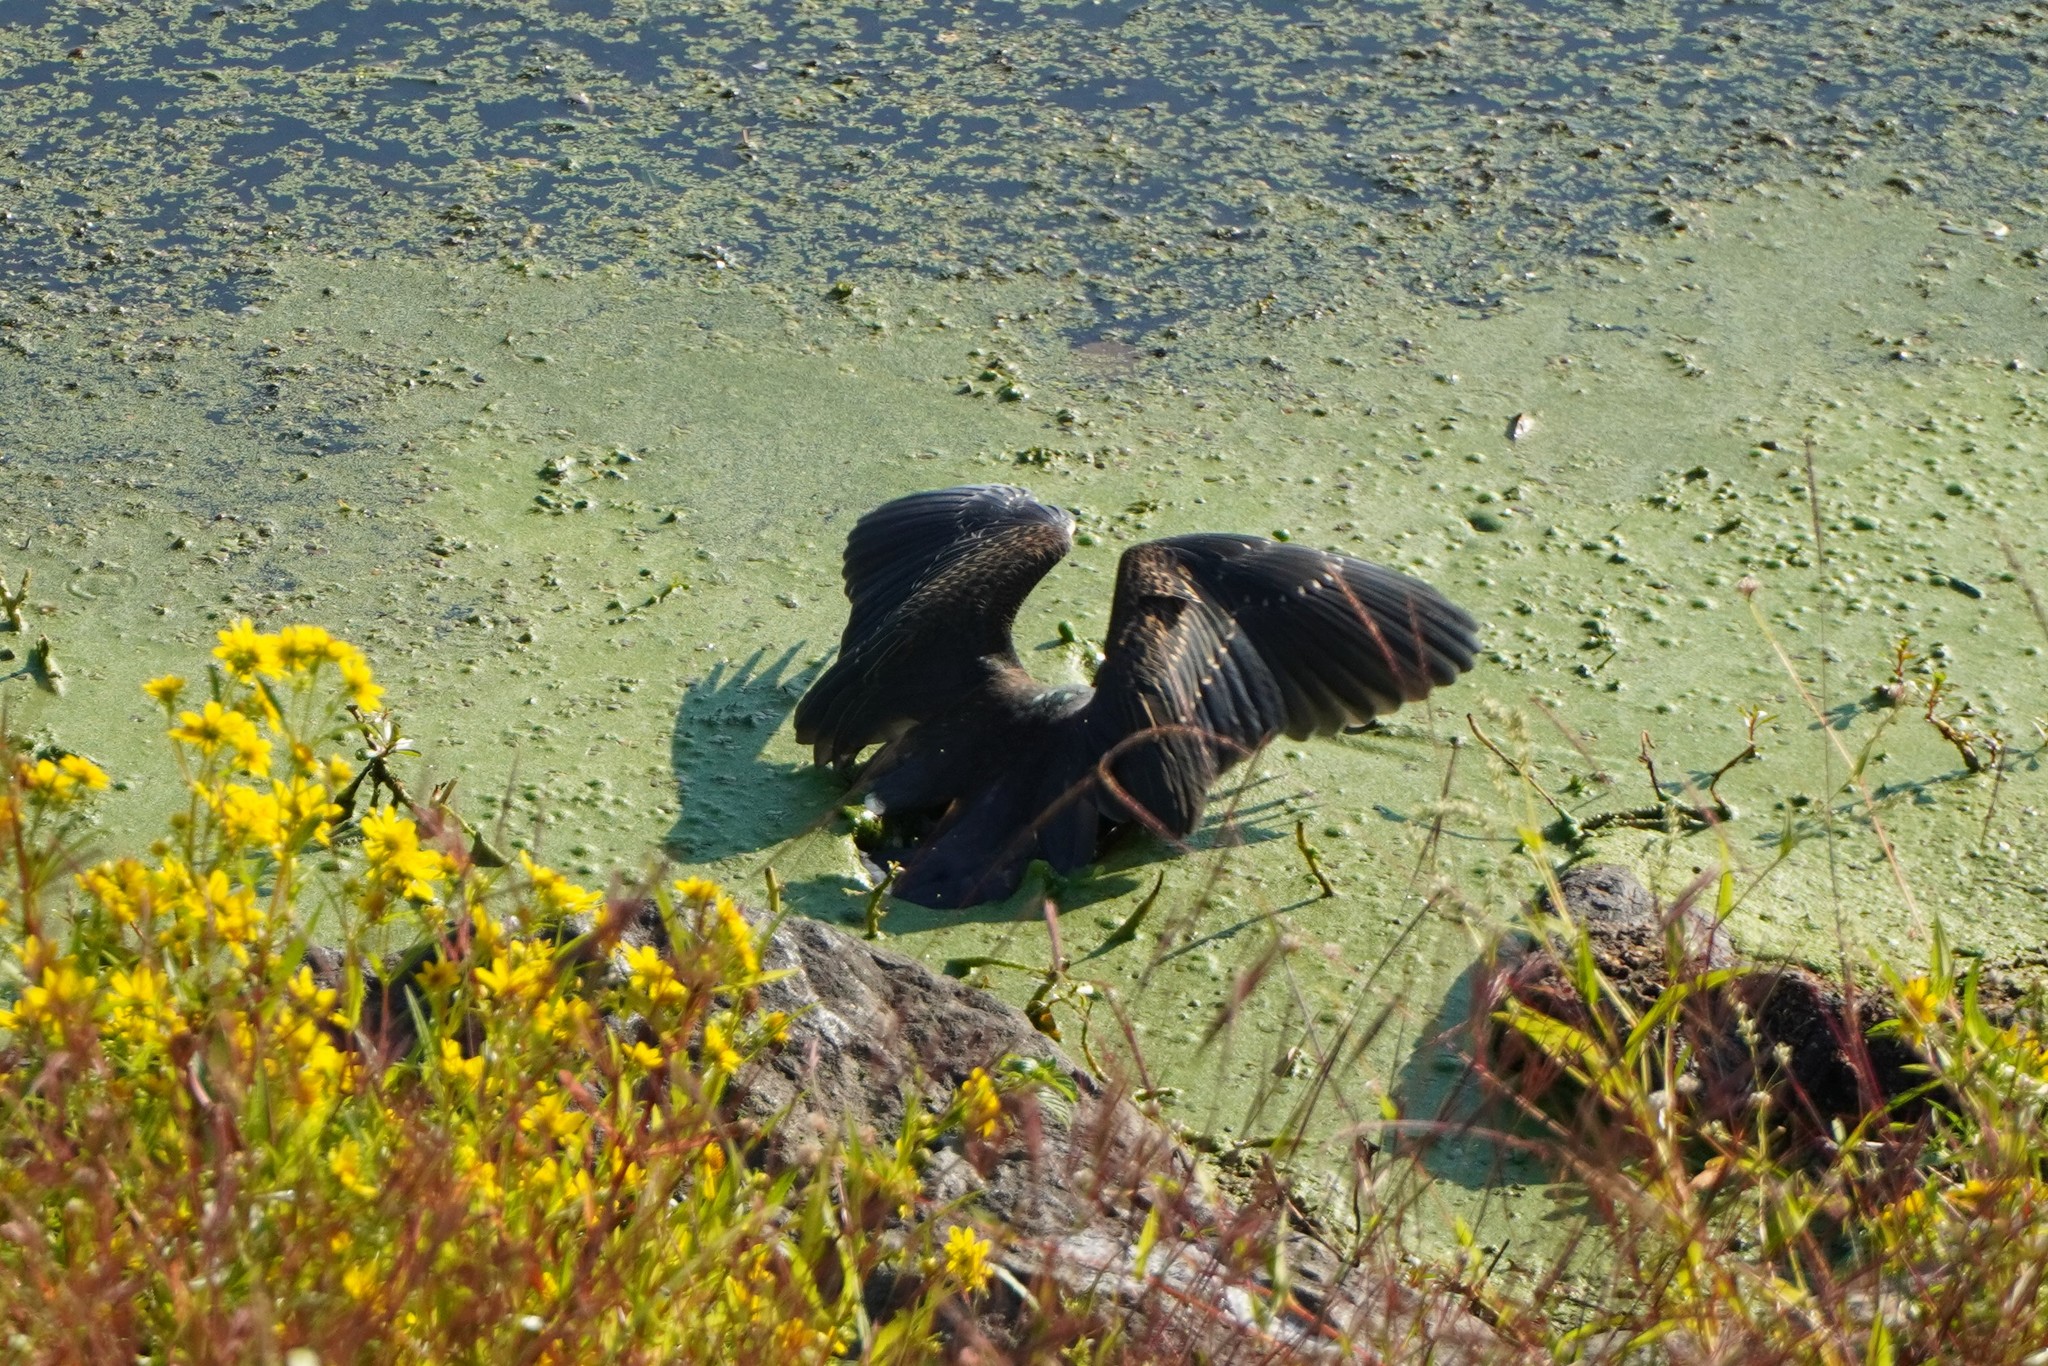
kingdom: Animalia
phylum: Chordata
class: Aves
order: Pelecaniformes
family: Ardeidae
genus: Butorides
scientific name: Butorides virescens
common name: Green heron
